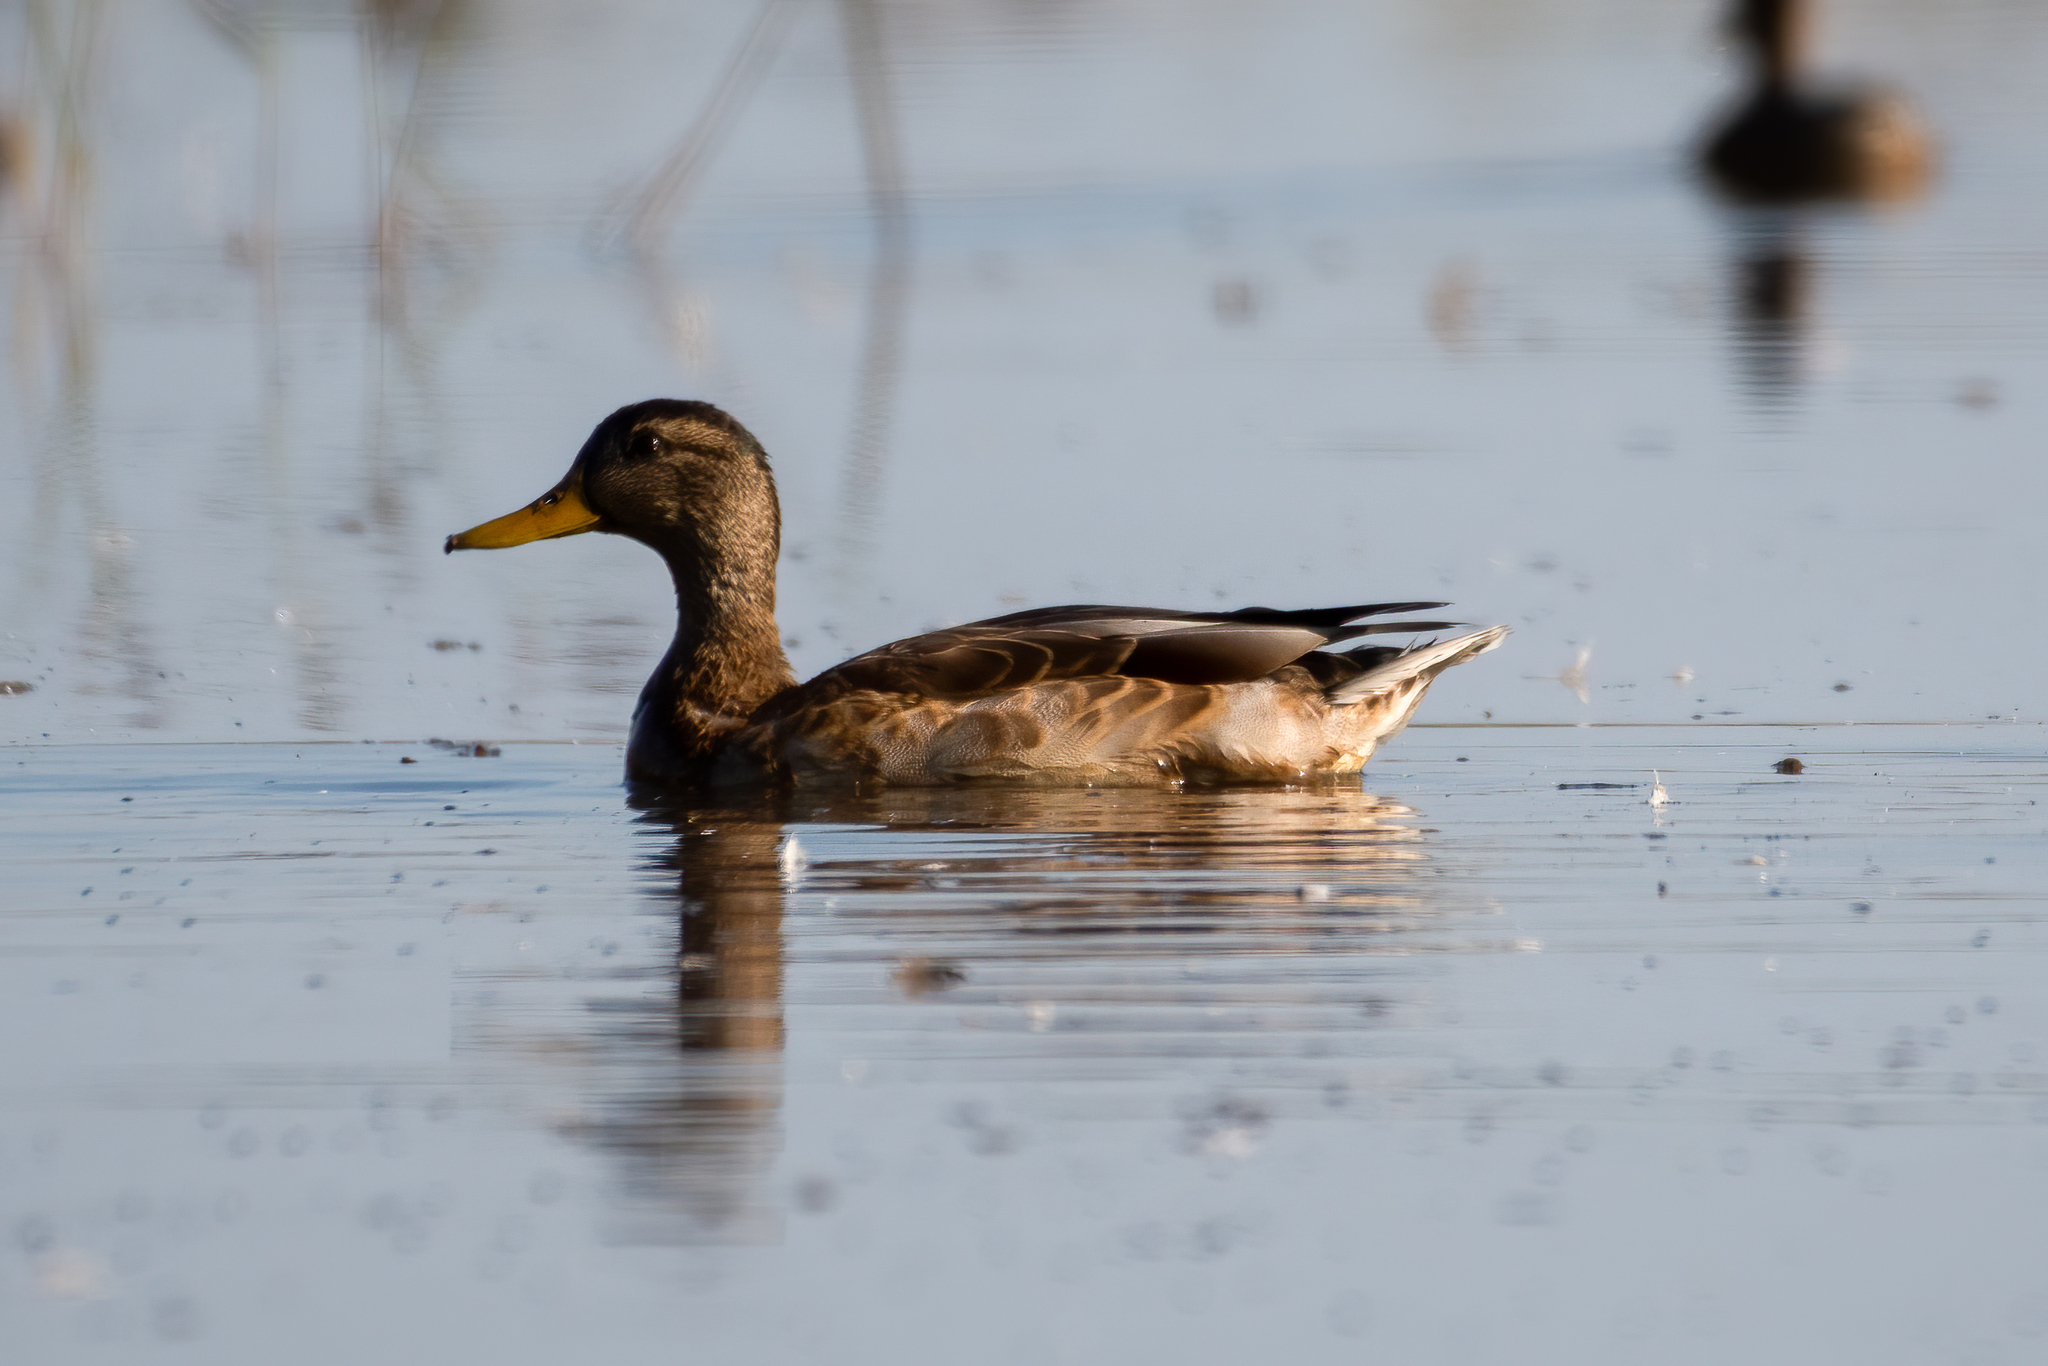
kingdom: Animalia
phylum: Chordata
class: Aves
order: Anseriformes
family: Anatidae
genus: Anas
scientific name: Anas platyrhynchos
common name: Mallard
